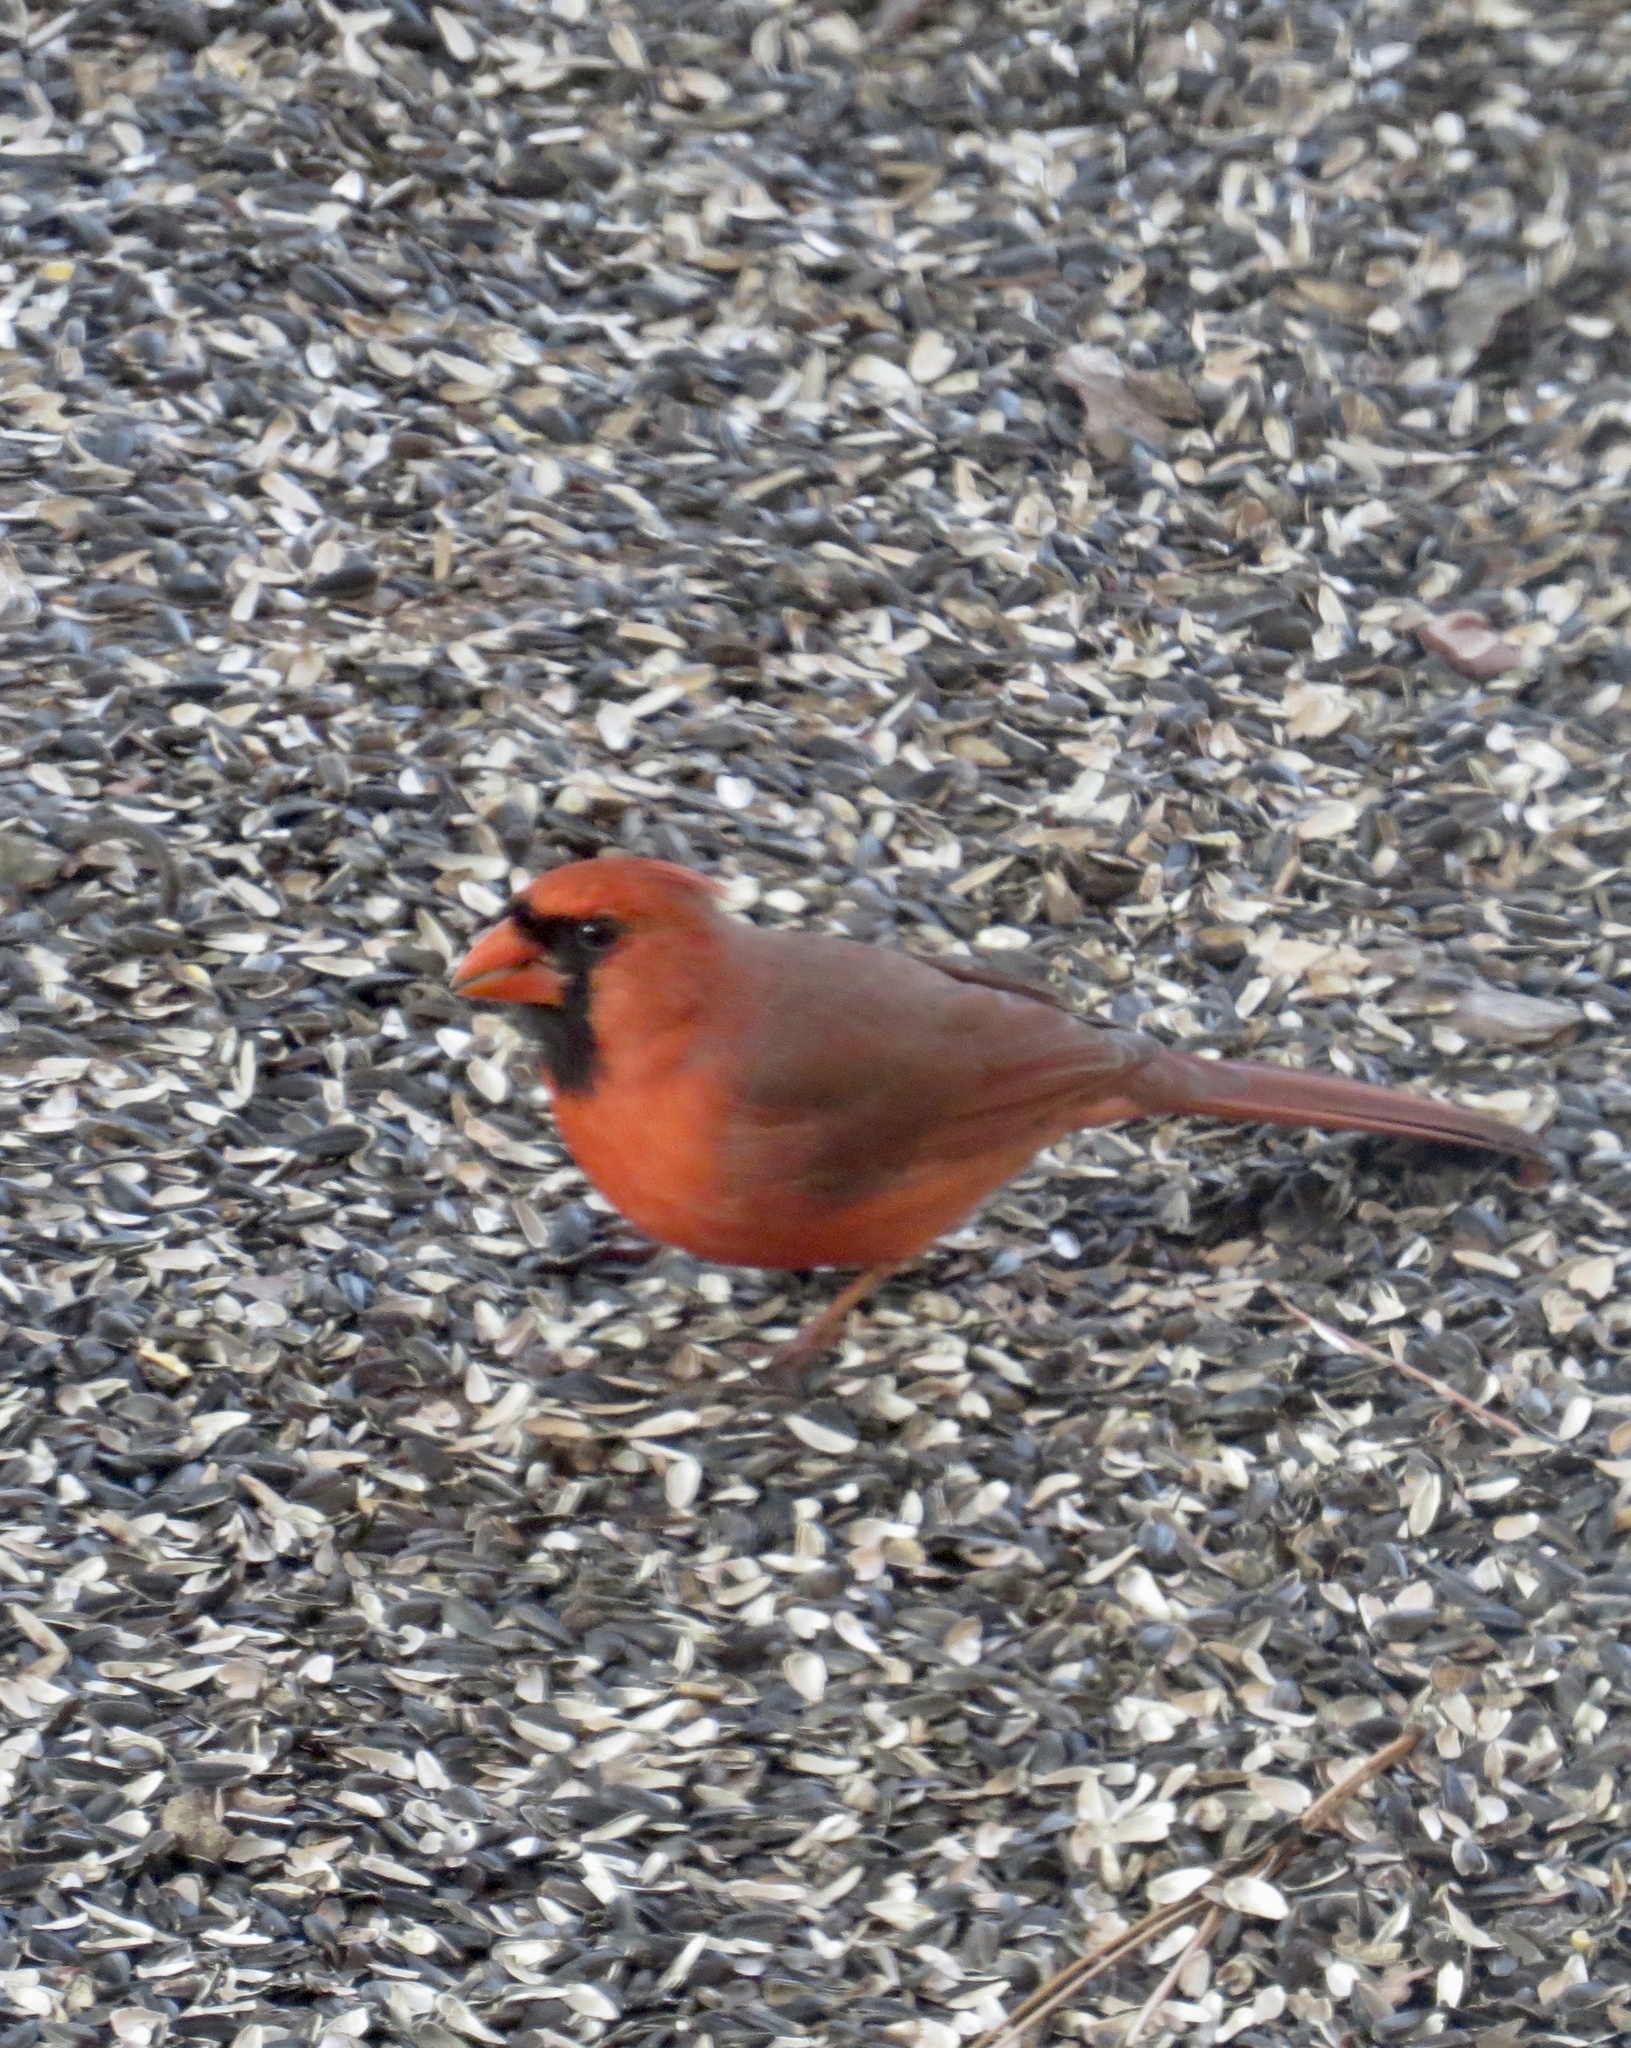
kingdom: Animalia
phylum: Chordata
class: Aves
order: Passeriformes
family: Cardinalidae
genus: Cardinalis
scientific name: Cardinalis cardinalis
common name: Northern cardinal
